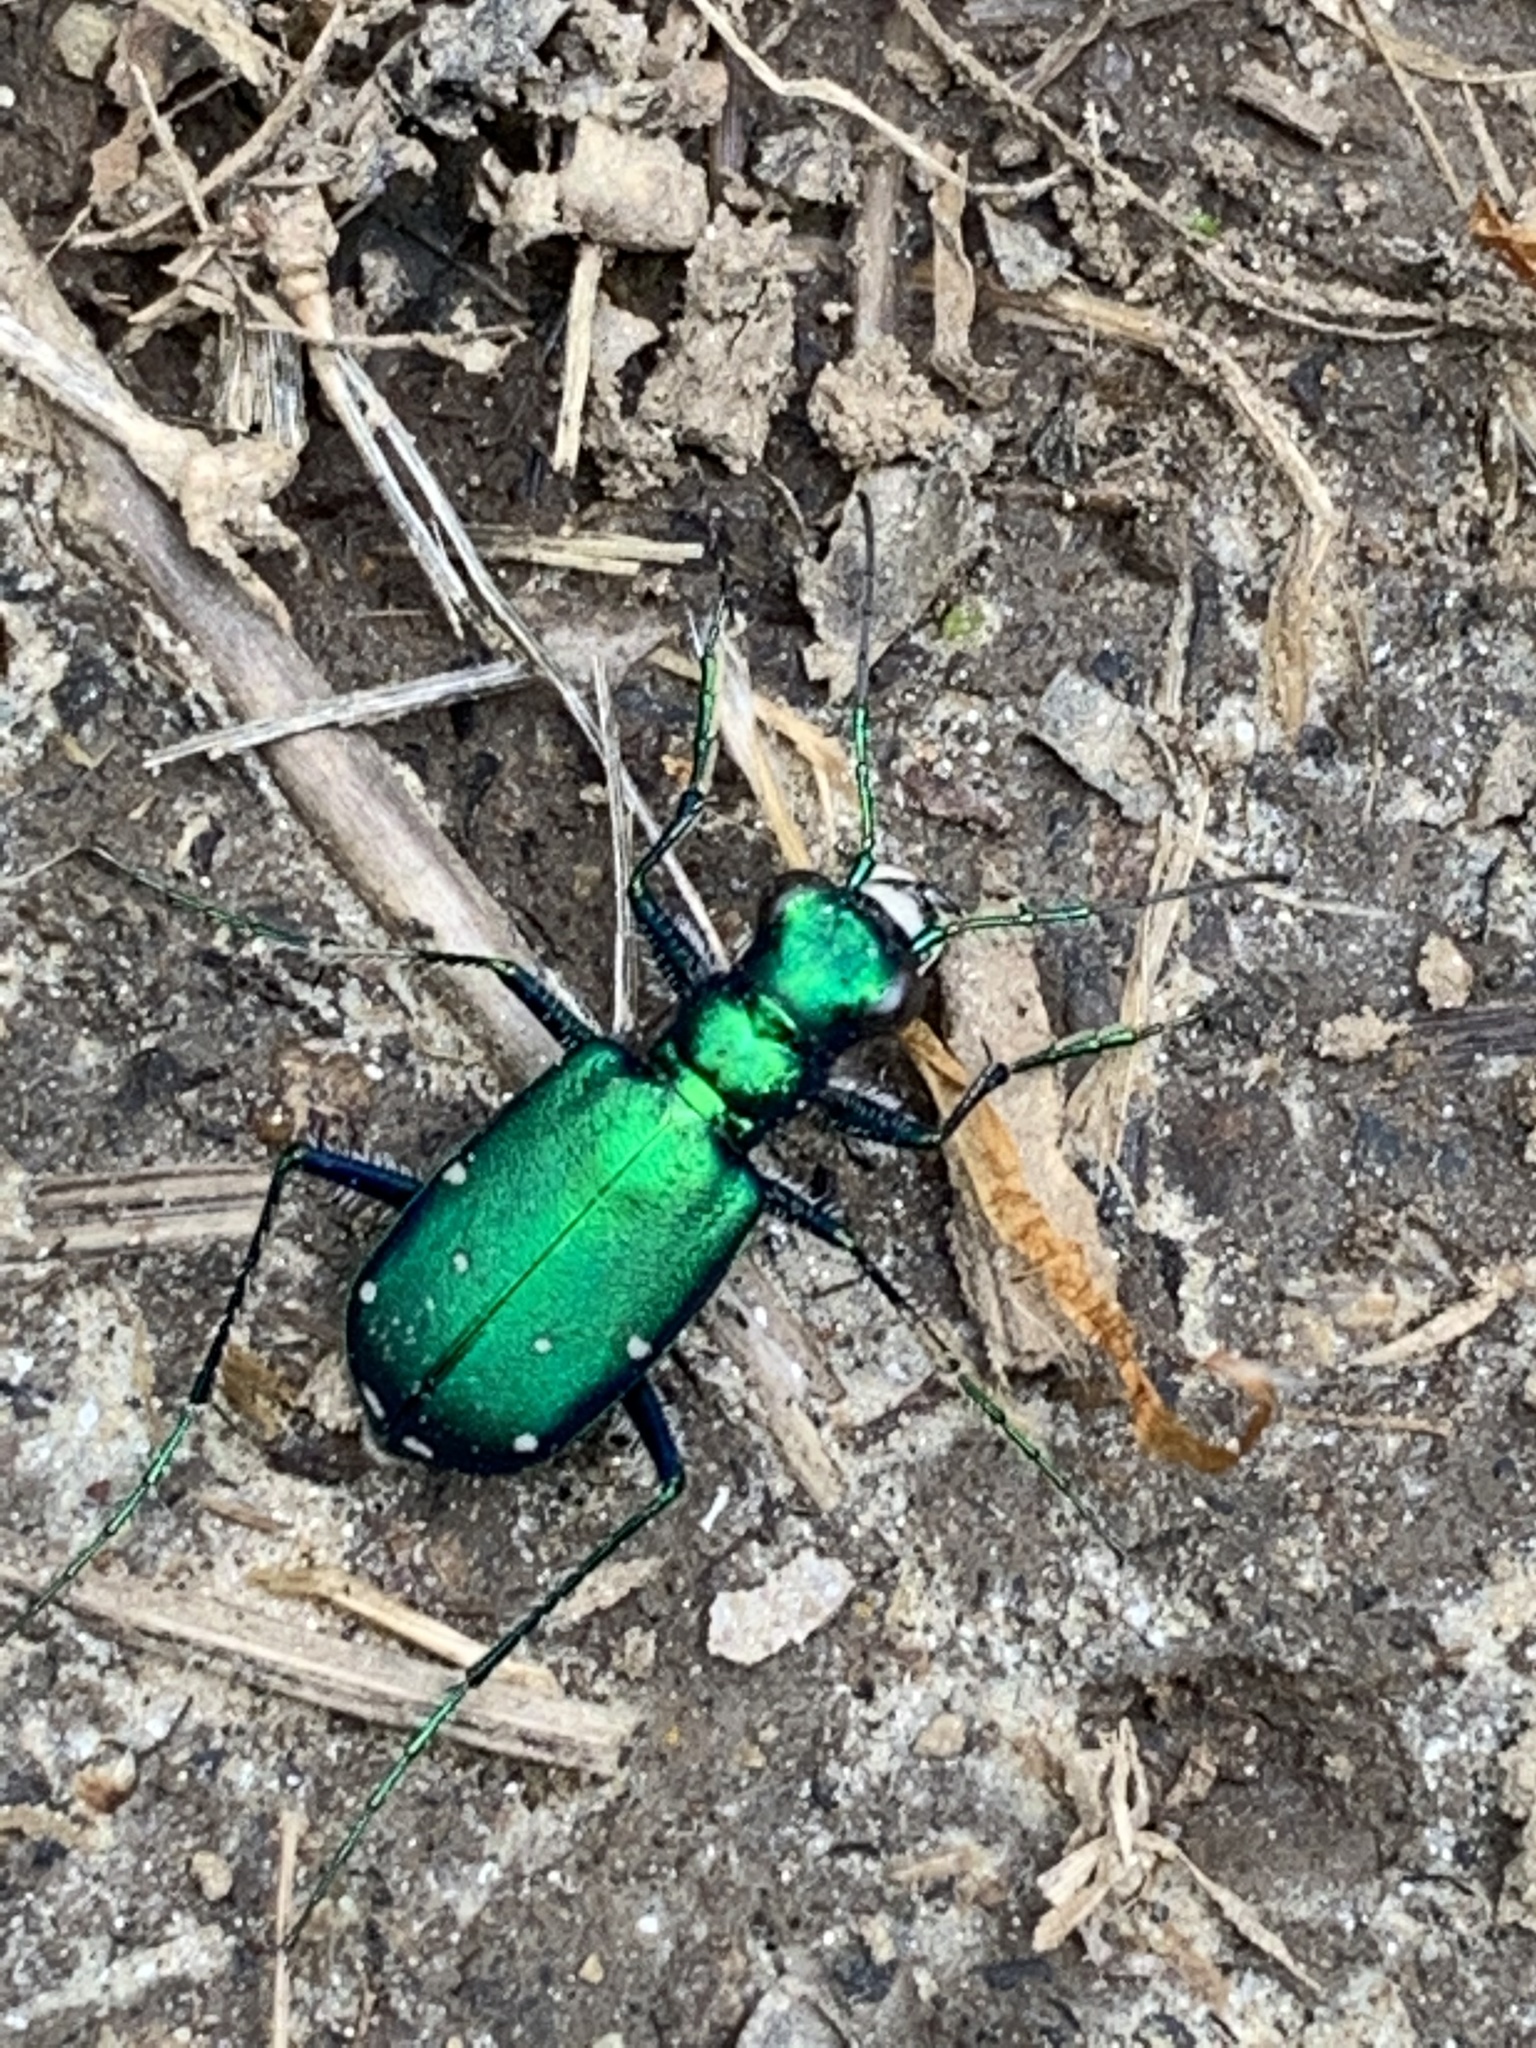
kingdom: Animalia
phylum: Arthropoda
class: Insecta
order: Coleoptera
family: Carabidae
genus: Cicindela
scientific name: Cicindela sexguttata
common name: Six-spotted tiger beetle
